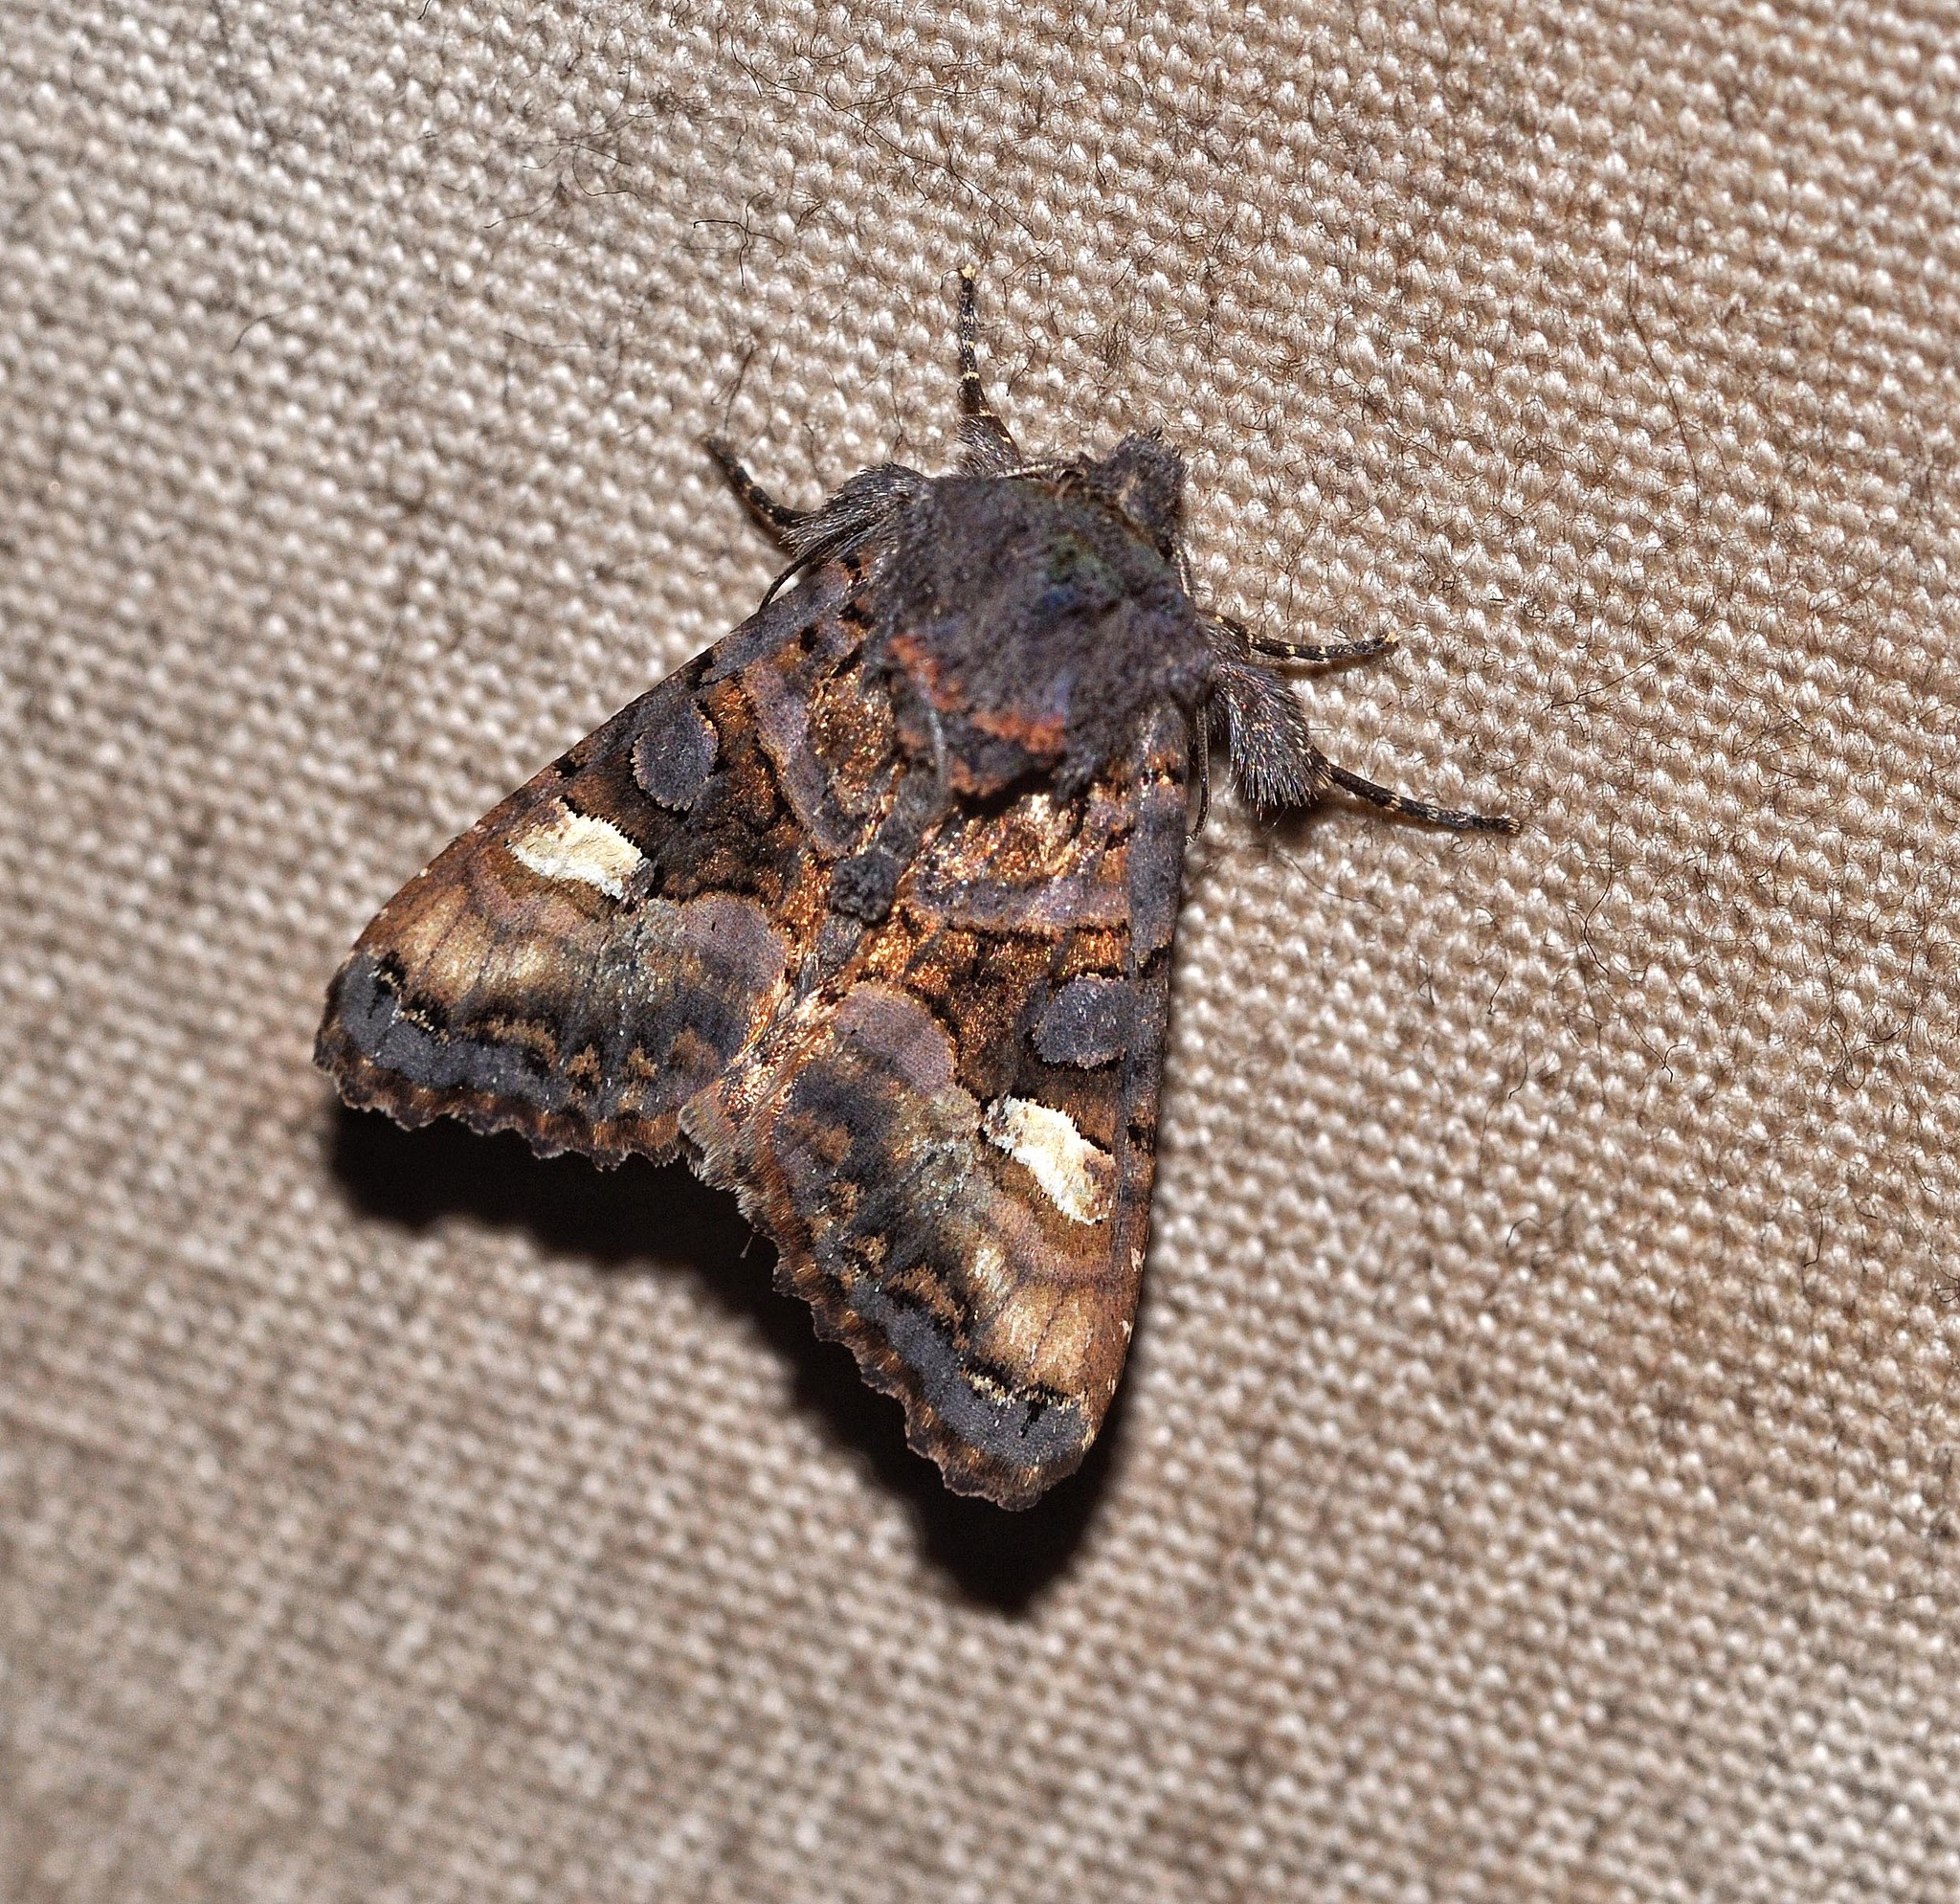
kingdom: Animalia
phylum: Arthropoda
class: Insecta
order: Lepidoptera
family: Noctuidae
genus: Euplexia
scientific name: Euplexia lucipara
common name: Small angle shades
